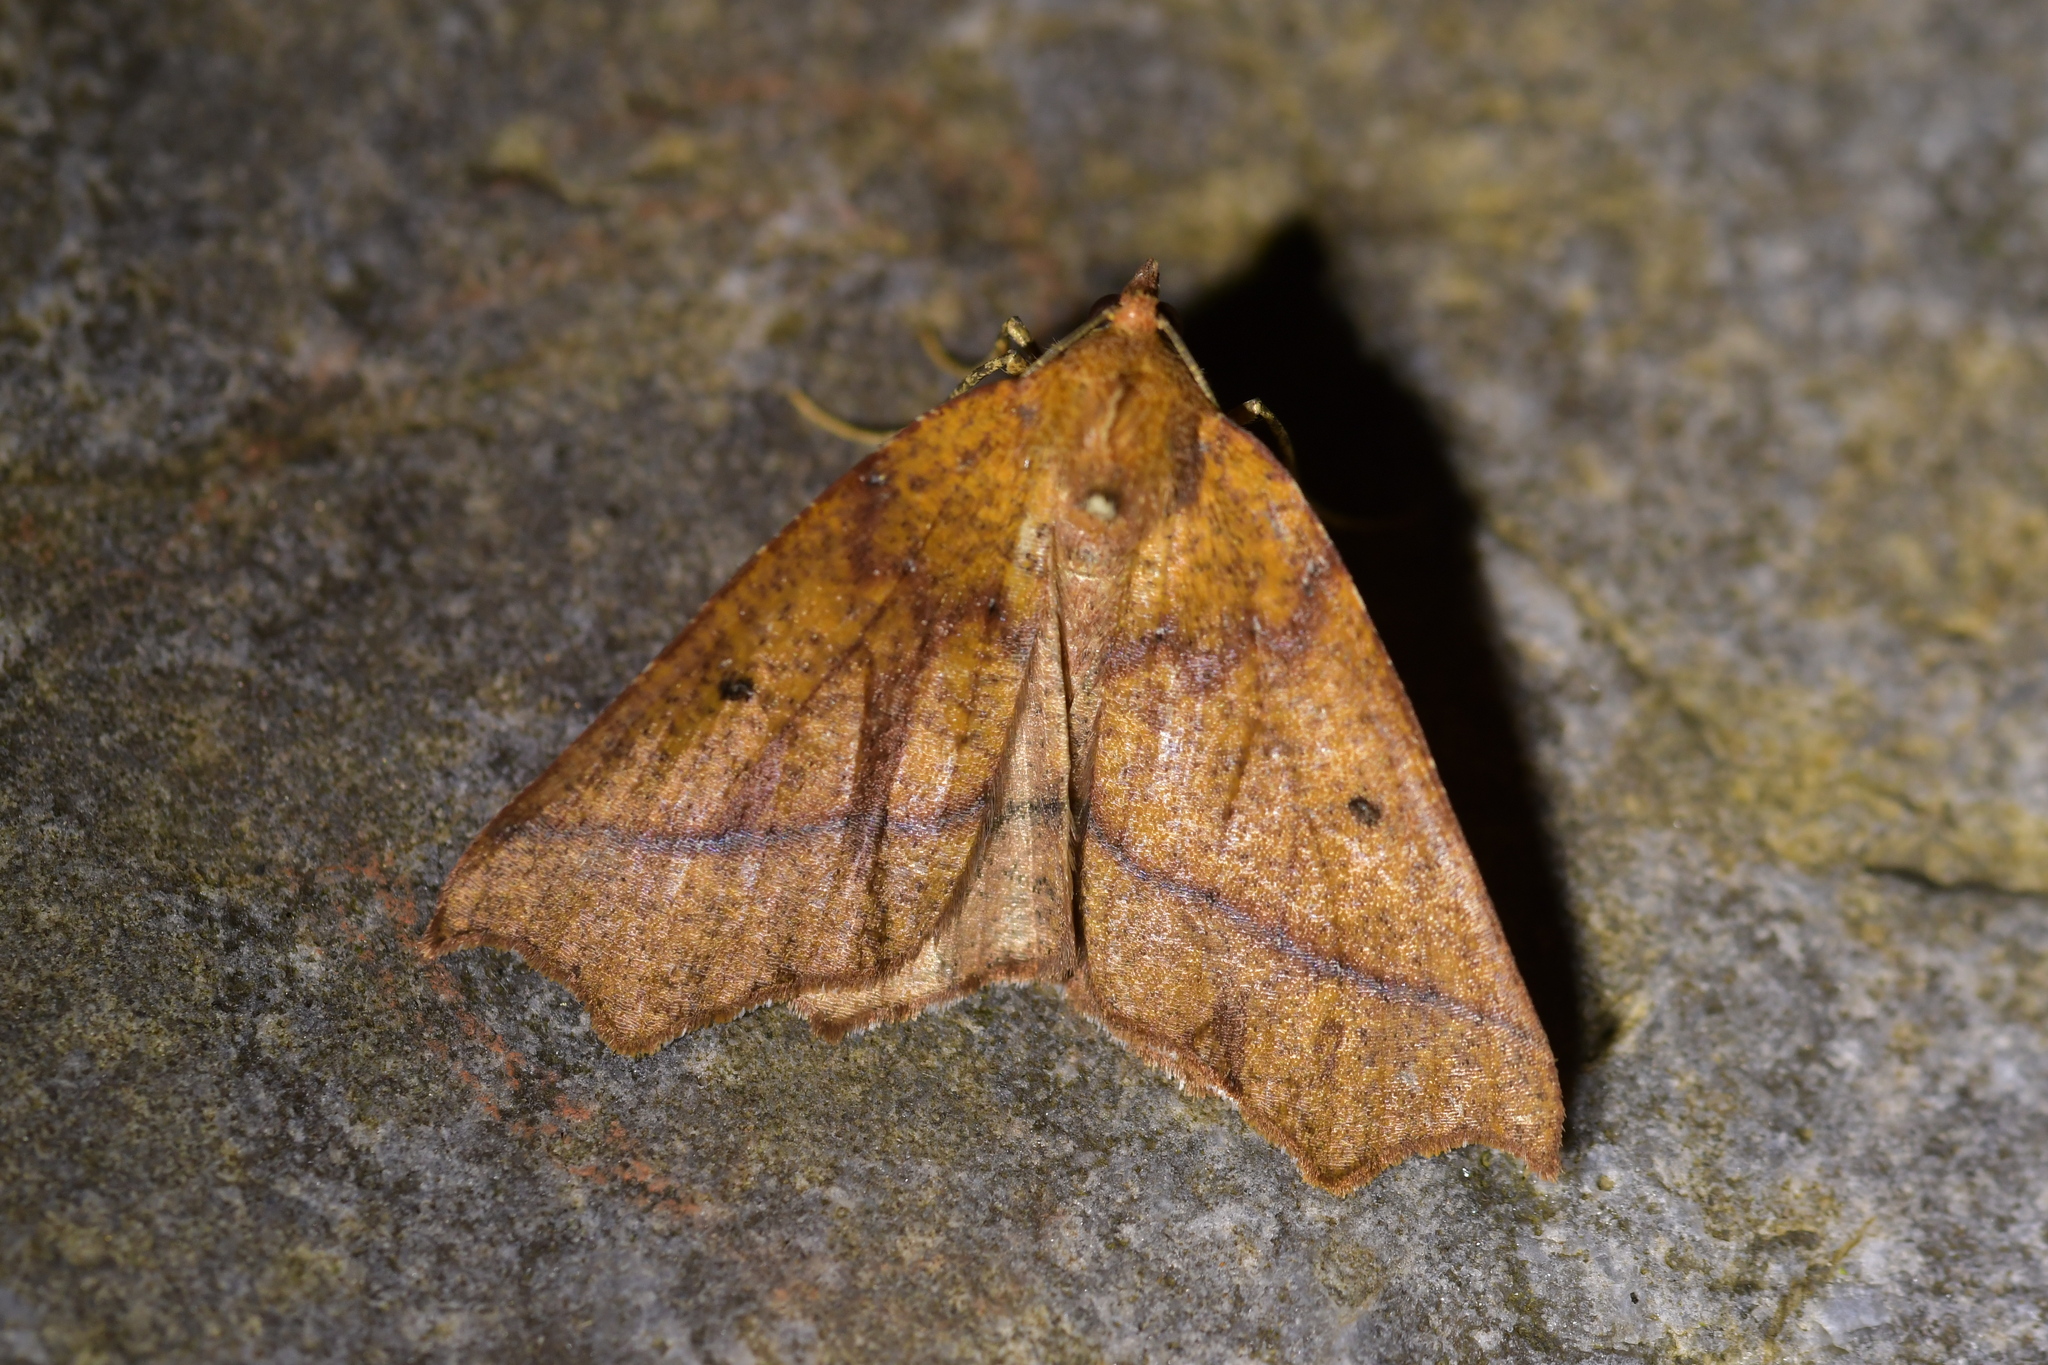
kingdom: Animalia
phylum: Arthropoda
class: Insecta
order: Lepidoptera
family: Geometridae
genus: Ischalis
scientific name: Ischalis nelsonaria
